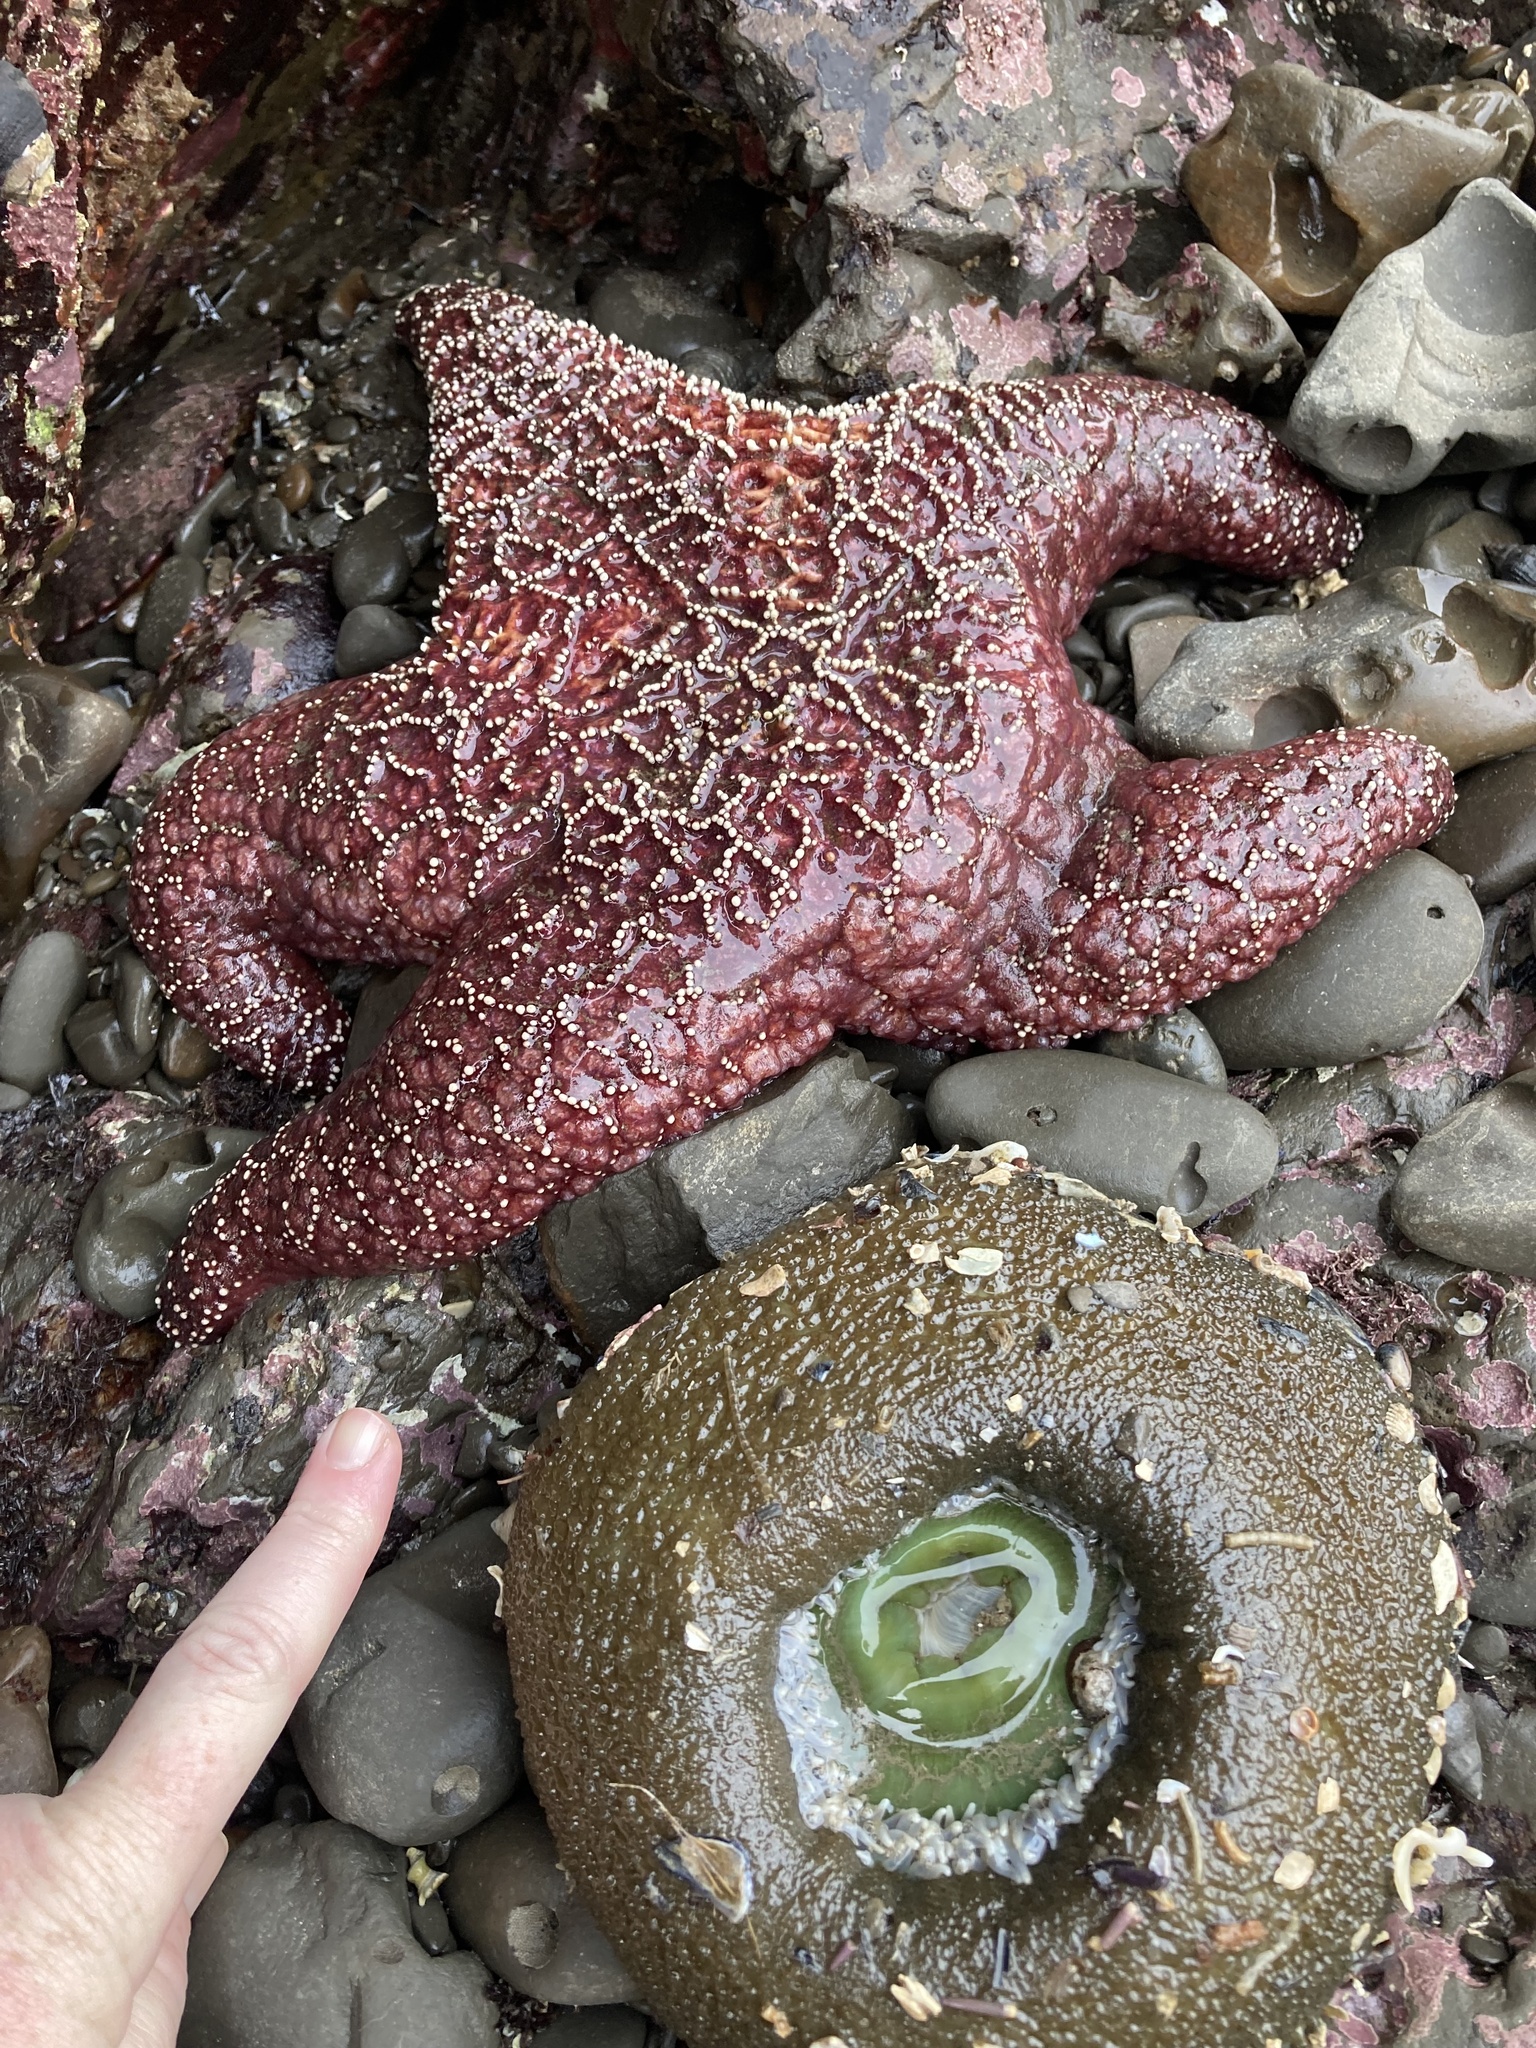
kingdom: Animalia
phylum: Echinodermata
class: Asteroidea
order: Forcipulatida
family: Asteriidae
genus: Pisaster
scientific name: Pisaster ochraceus
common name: Ochre stars
